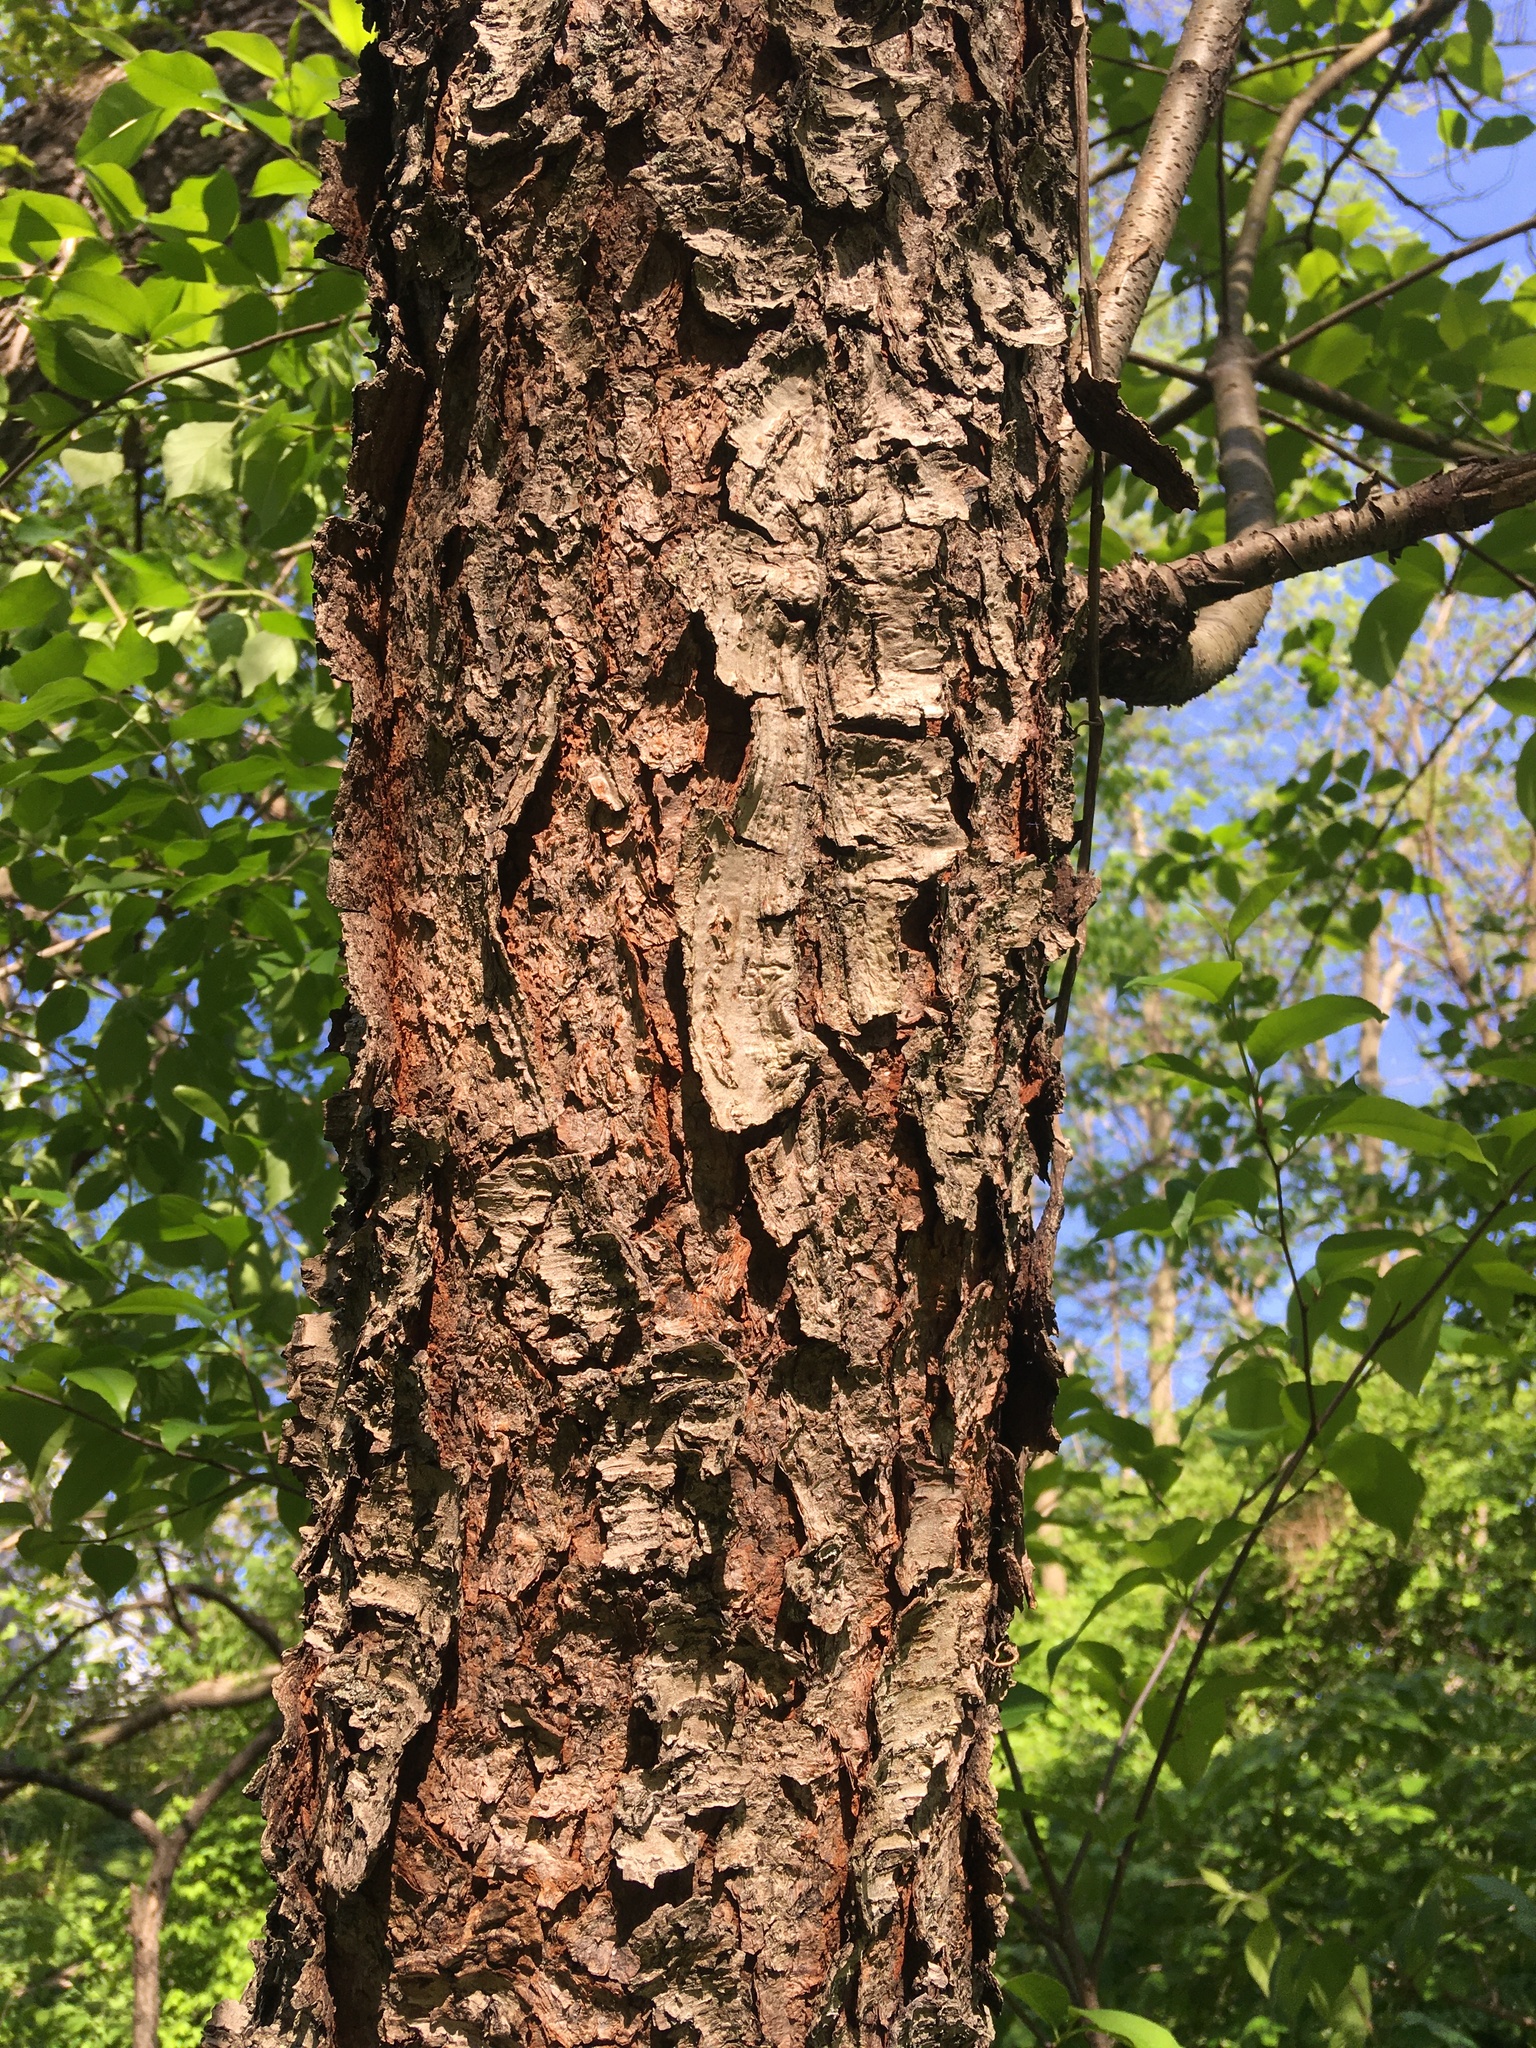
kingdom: Plantae
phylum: Tracheophyta
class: Magnoliopsida
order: Rosales
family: Rosaceae
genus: Prunus
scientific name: Prunus serotina
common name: Black cherry
